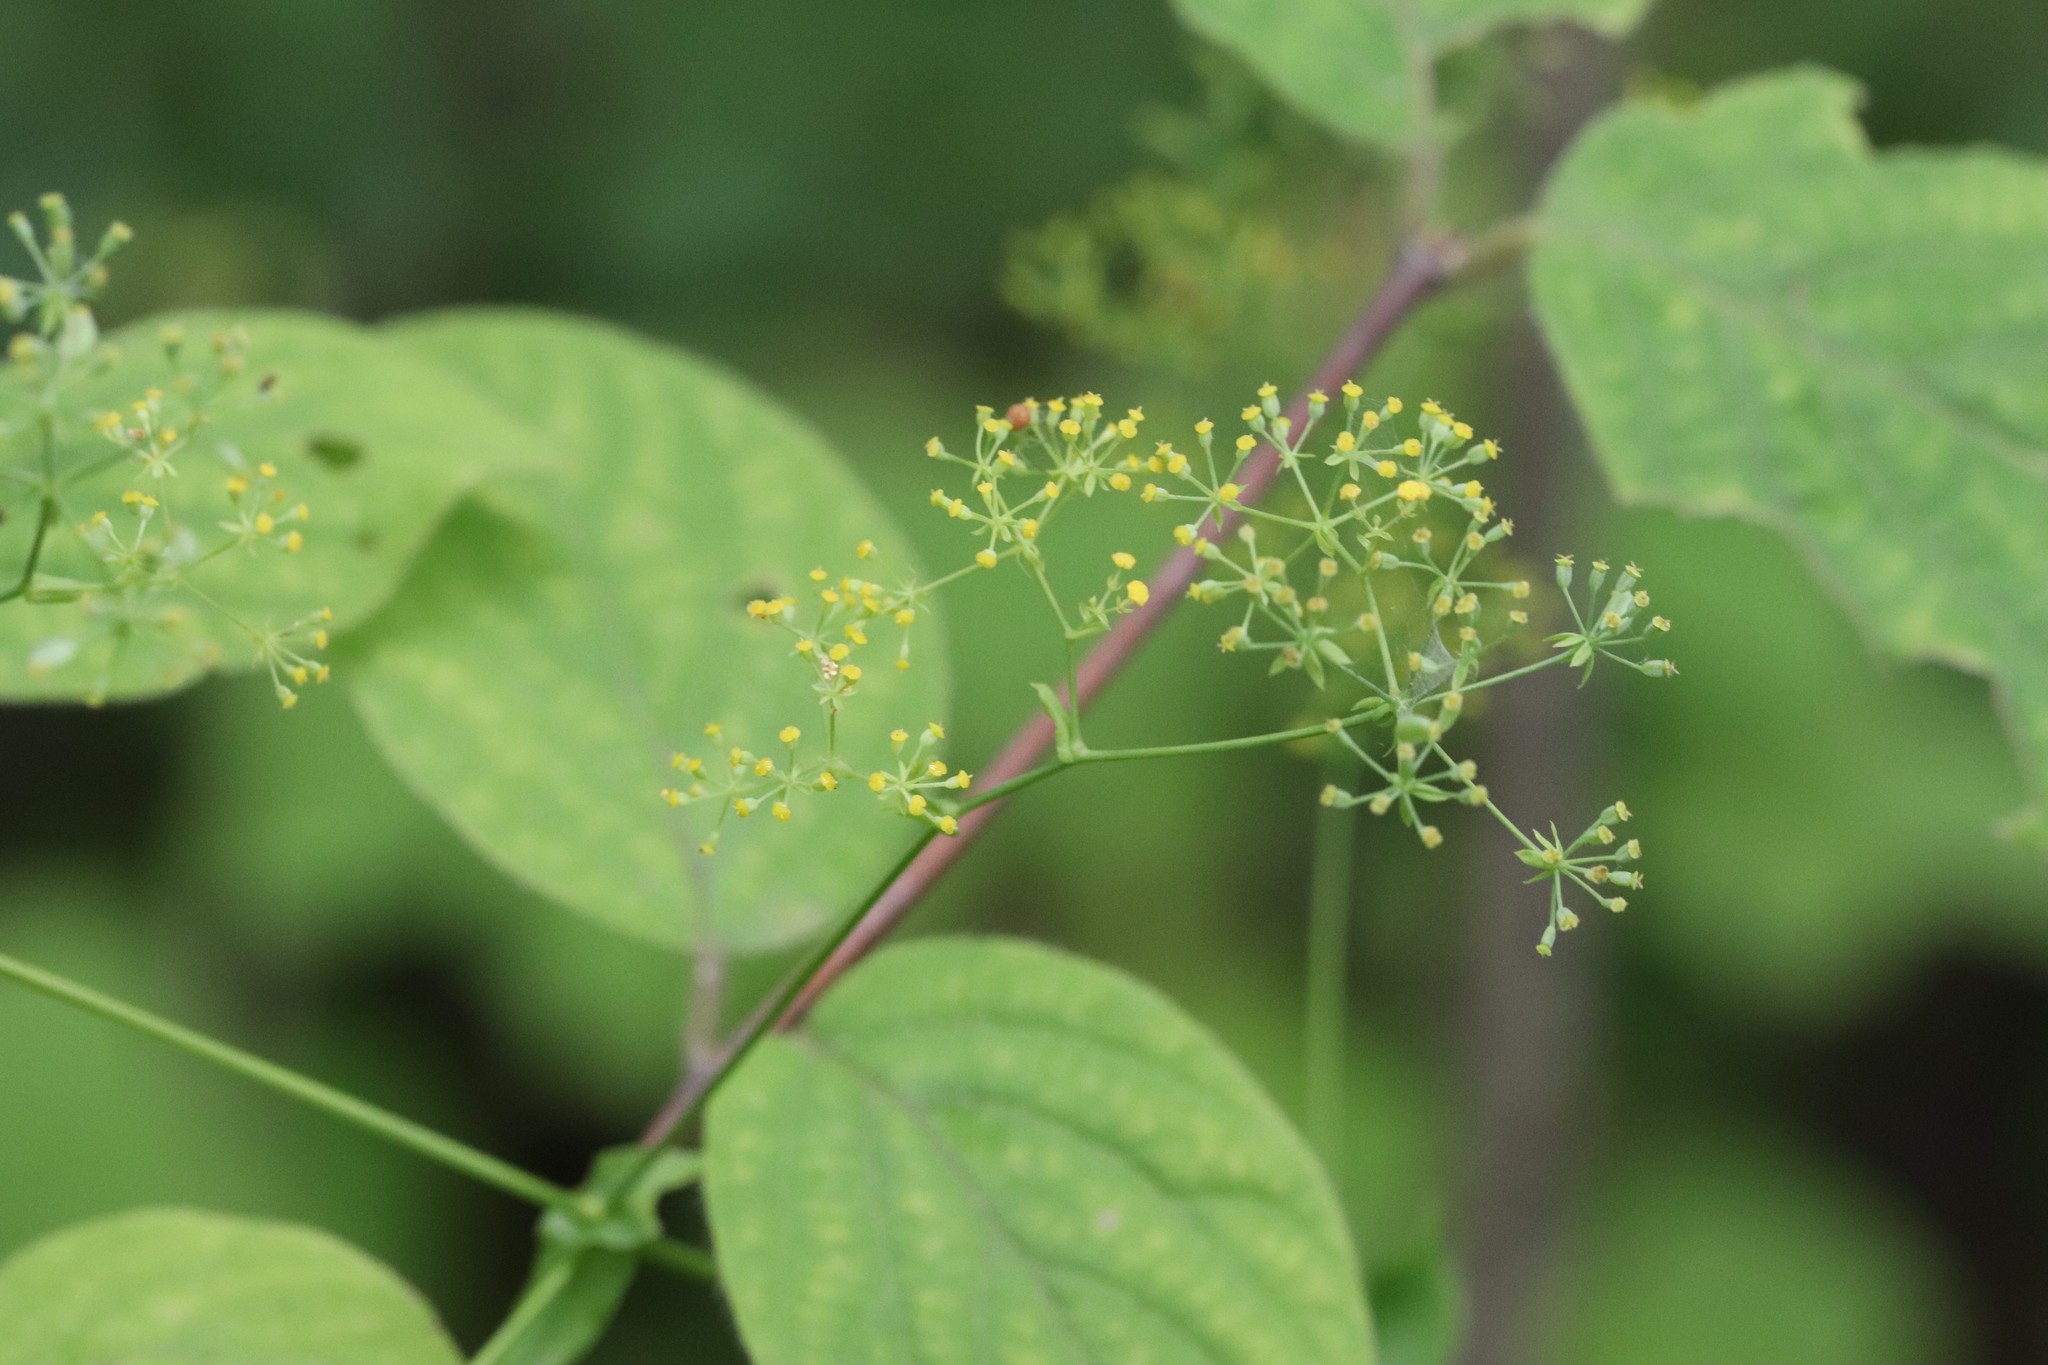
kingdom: Plantae
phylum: Tracheophyta
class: Magnoliopsida
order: Apiales
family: Apiaceae
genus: Bupleurum
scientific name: Bupleurum longiradiatum
